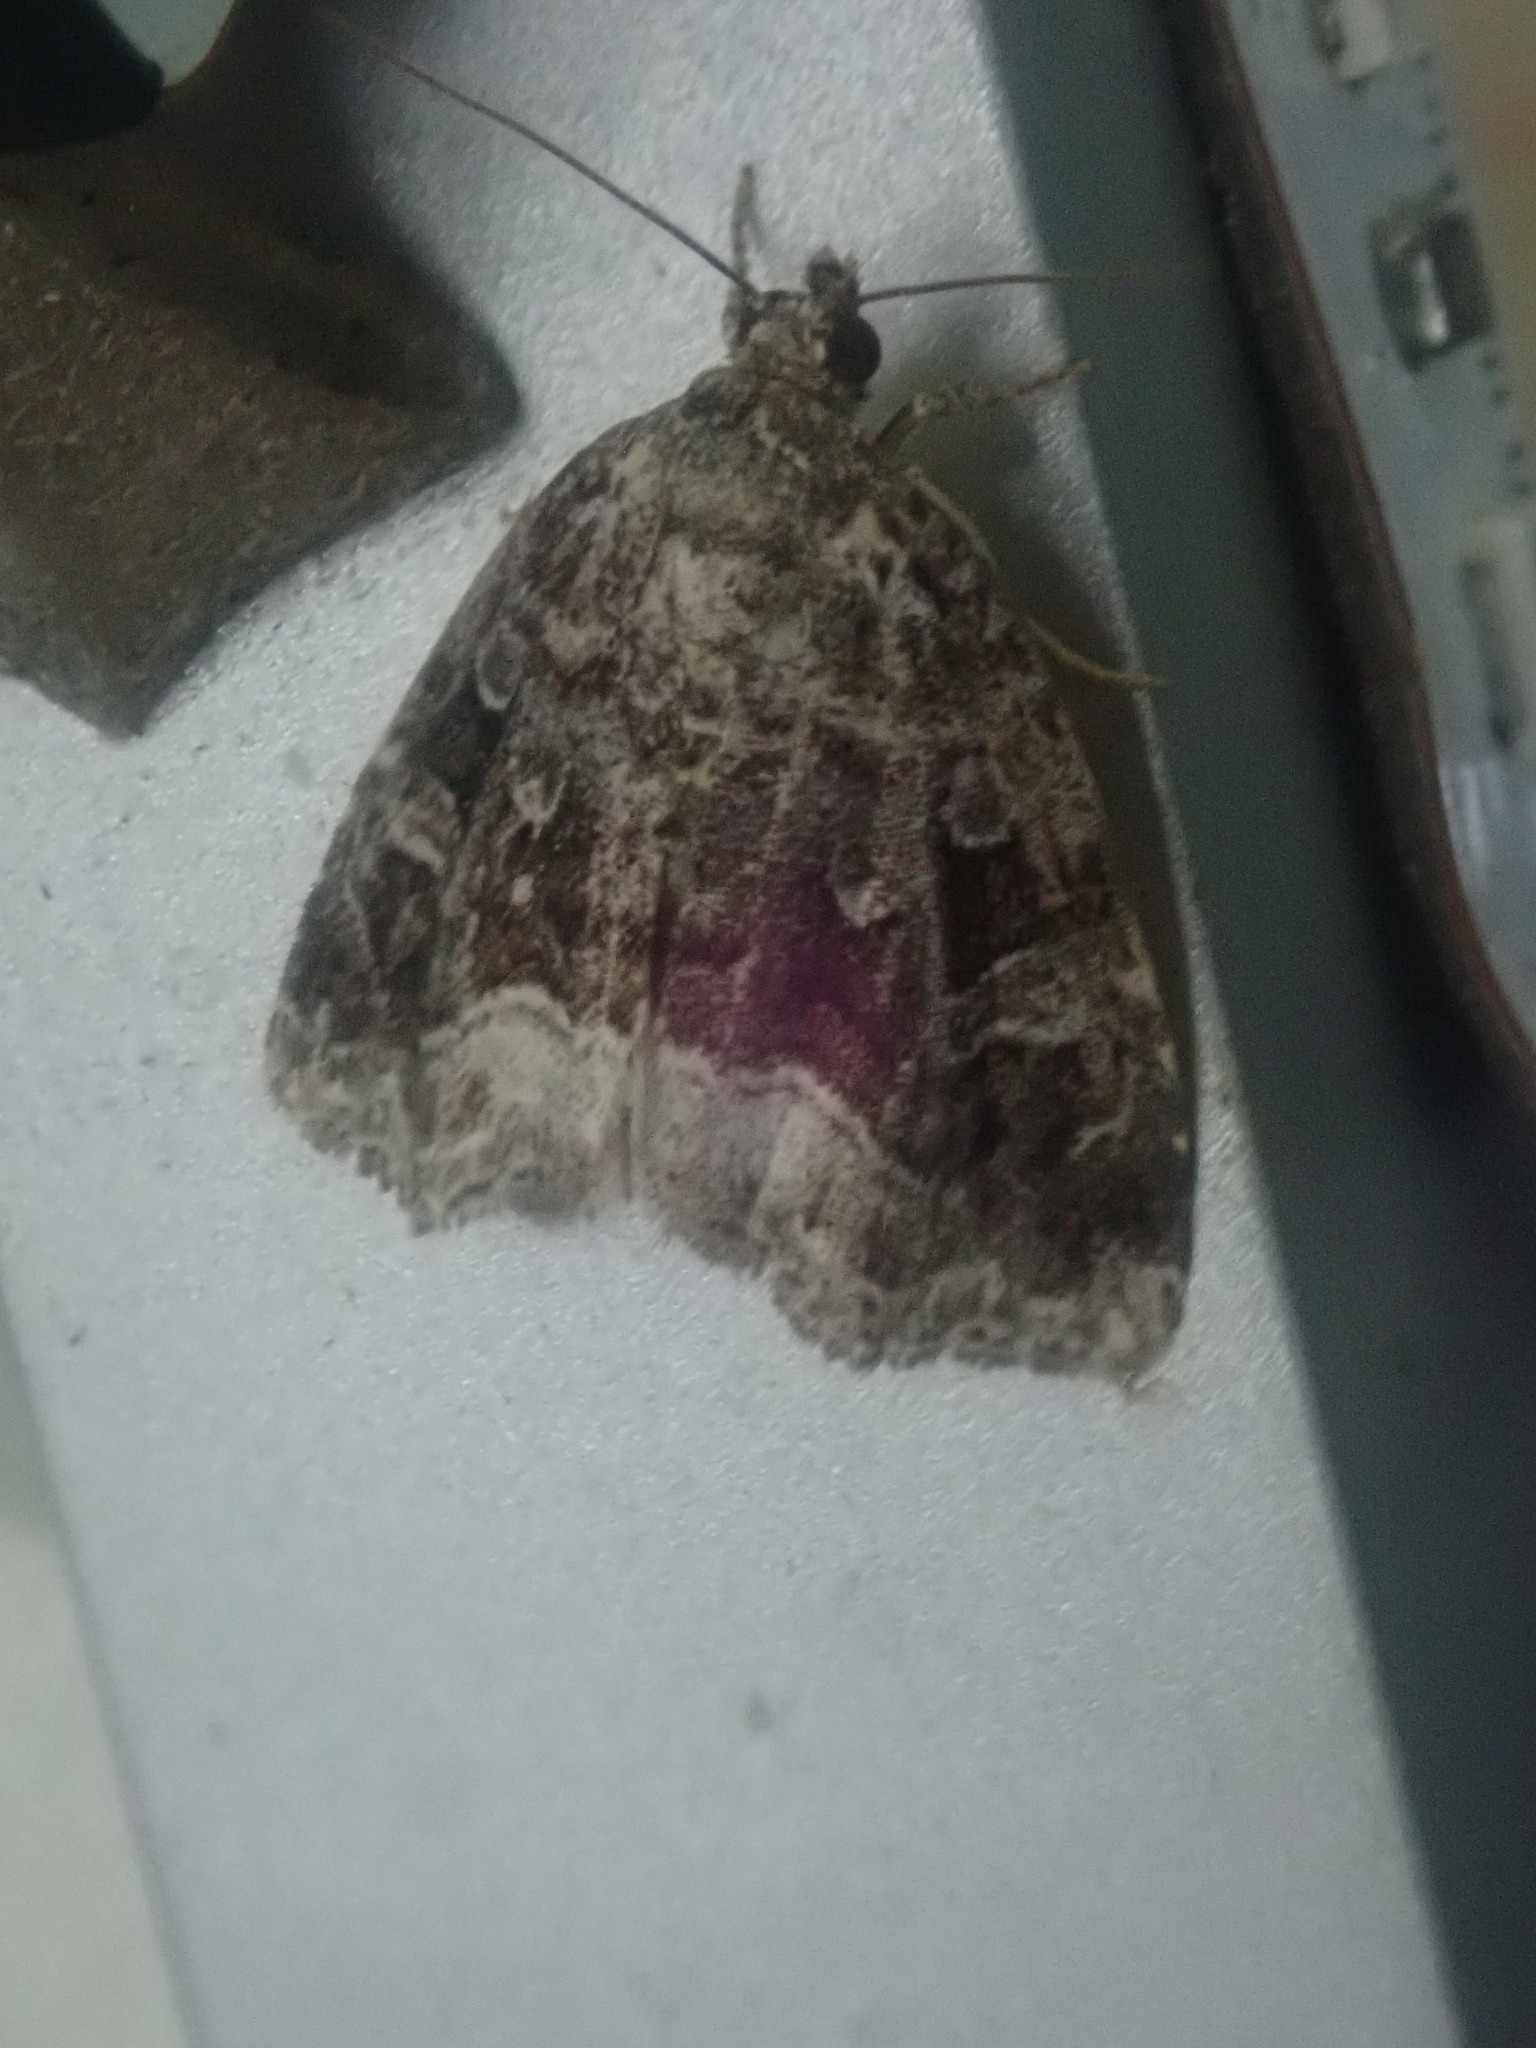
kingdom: Animalia
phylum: Arthropoda
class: Insecta
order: Lepidoptera
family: Noctuidae
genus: Protodeltote
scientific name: Protodeltote muscosula
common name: Large mossy glyph
